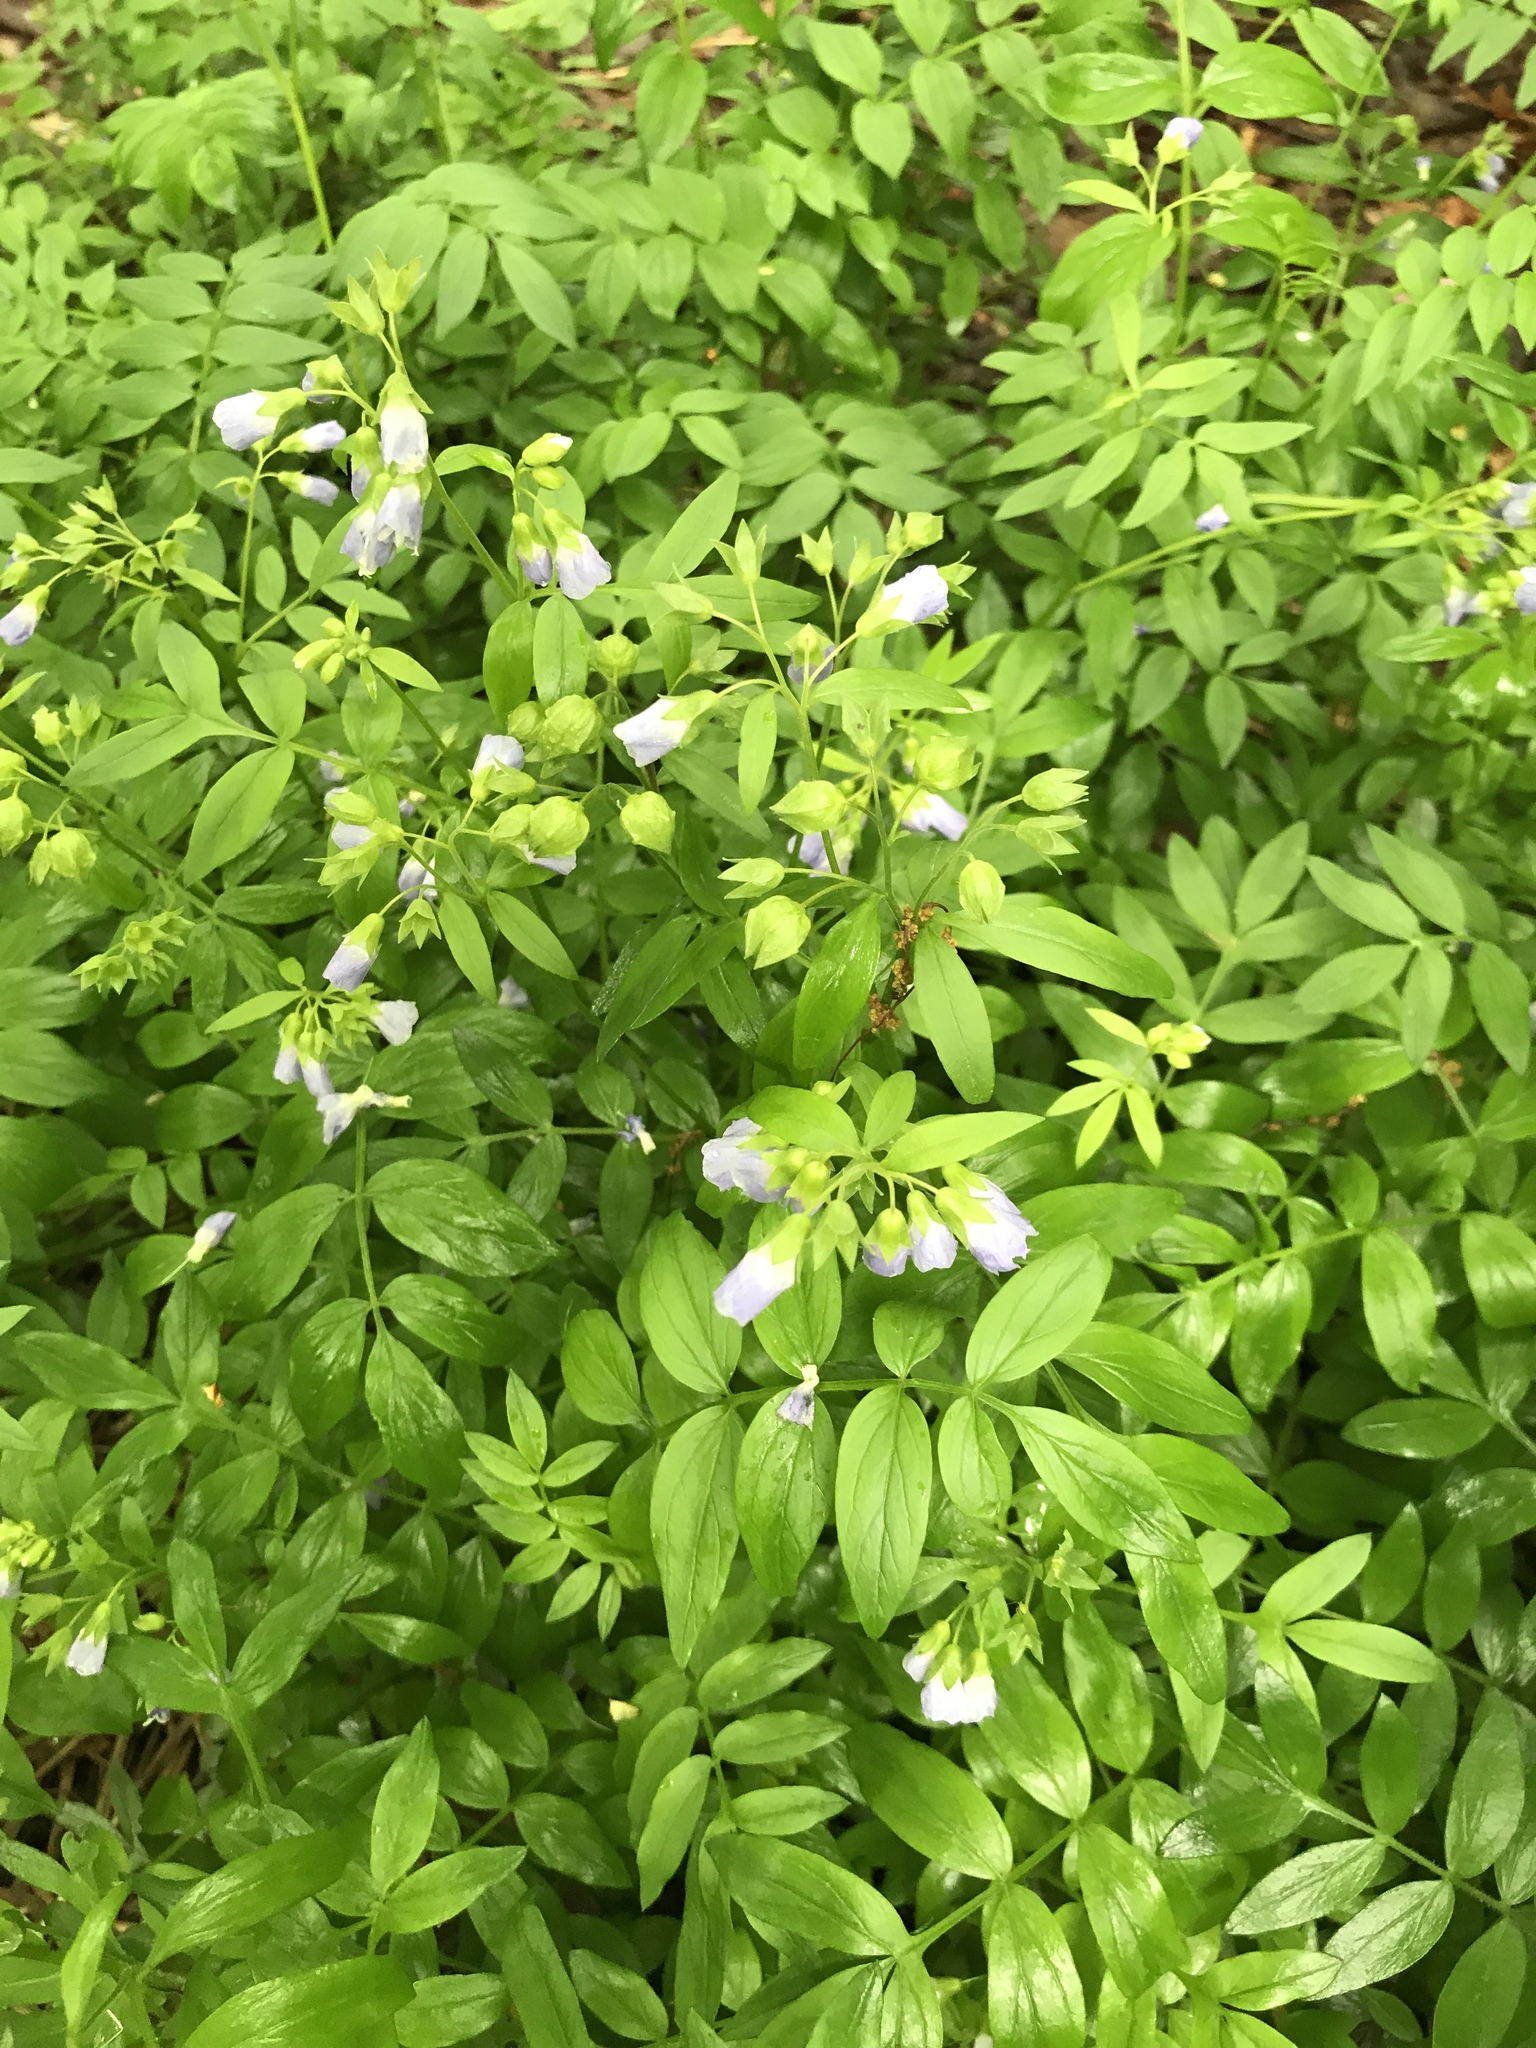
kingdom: Plantae
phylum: Tracheophyta
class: Magnoliopsida
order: Ericales
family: Polemoniaceae
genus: Polemonium
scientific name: Polemonium reptans
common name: Creeping jacob's-ladder
